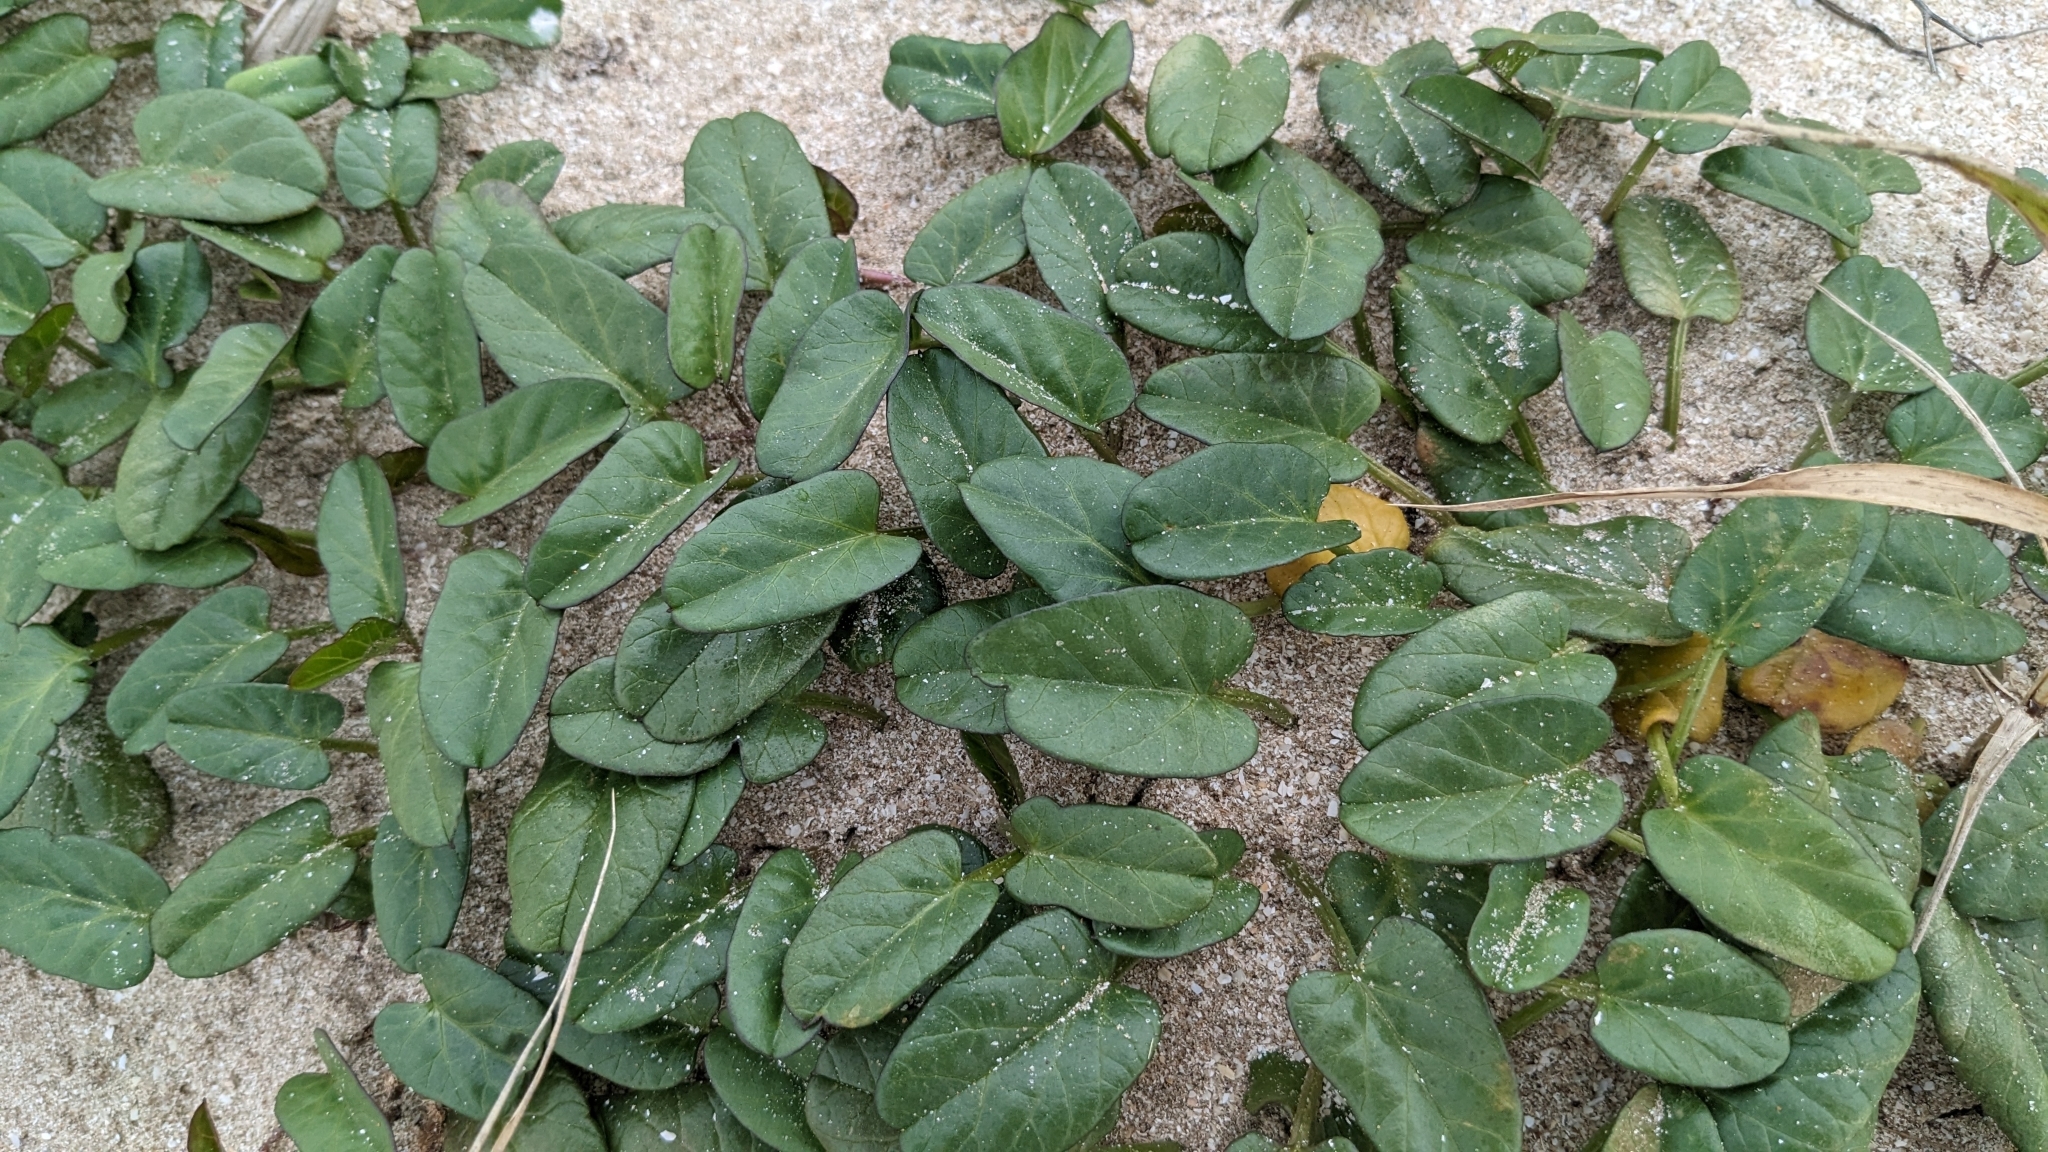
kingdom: Plantae
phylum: Tracheophyta
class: Magnoliopsida
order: Solanales
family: Convolvulaceae
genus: Ipomoea
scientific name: Ipomoea imperati
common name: Fiddle-leaf morning-glory
